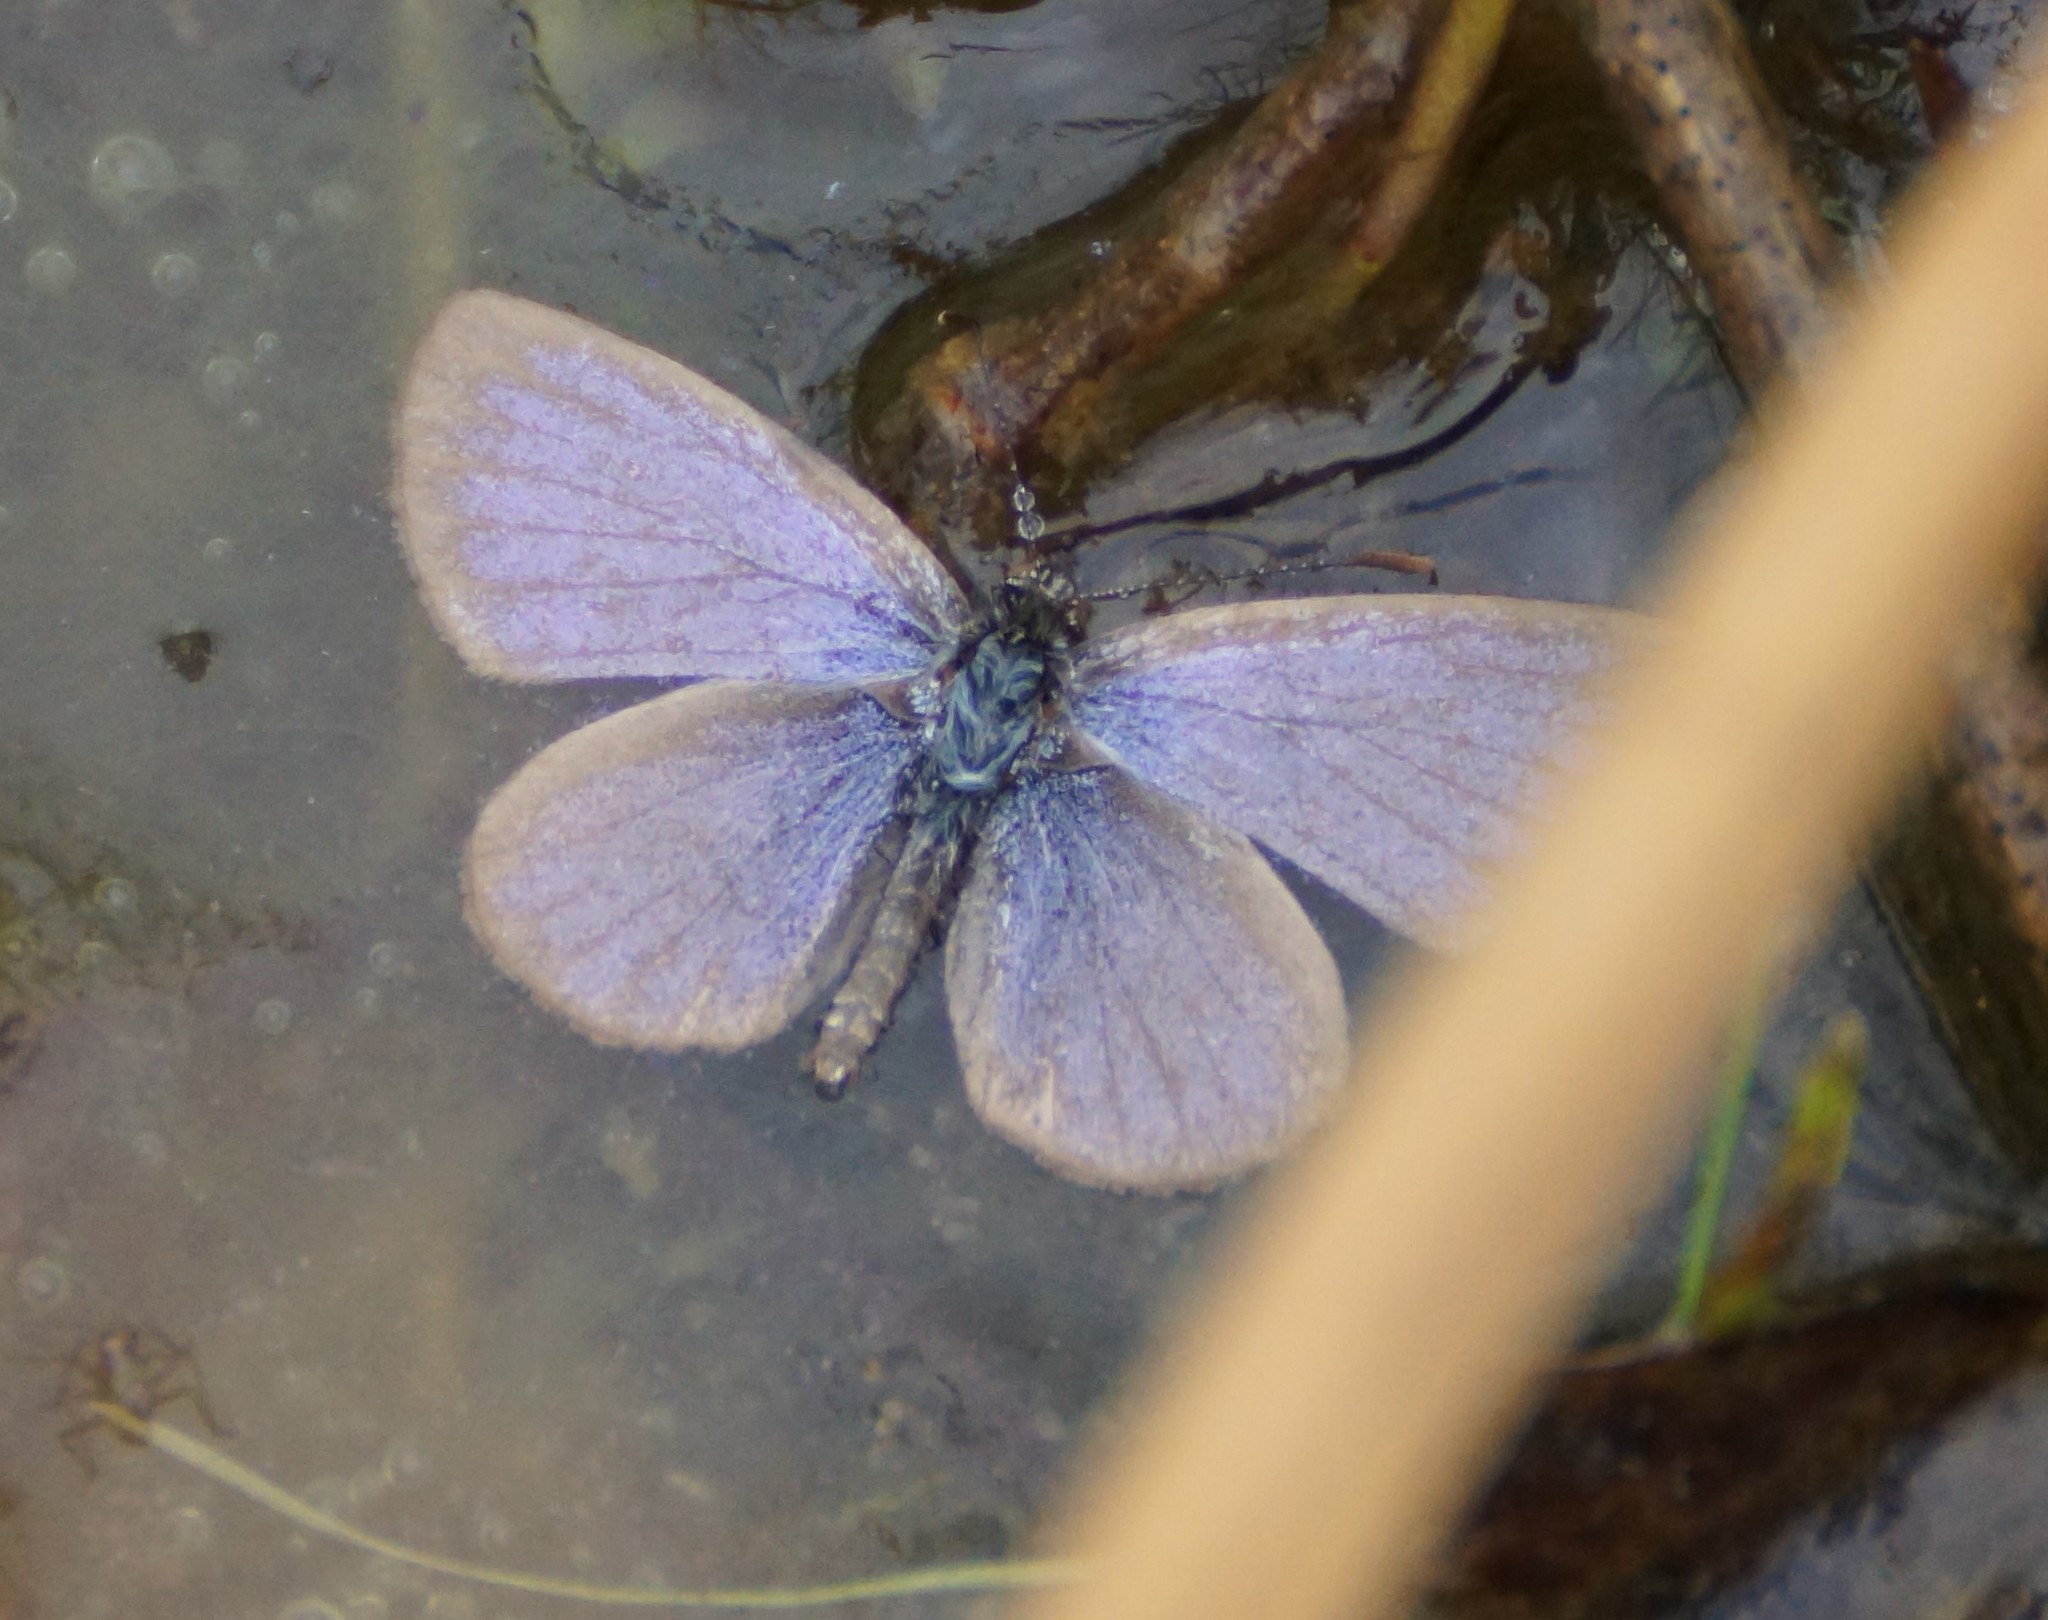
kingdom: Animalia
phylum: Arthropoda
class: Insecta
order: Lepidoptera
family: Lycaenidae
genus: Zizina
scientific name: Zizina labradus
